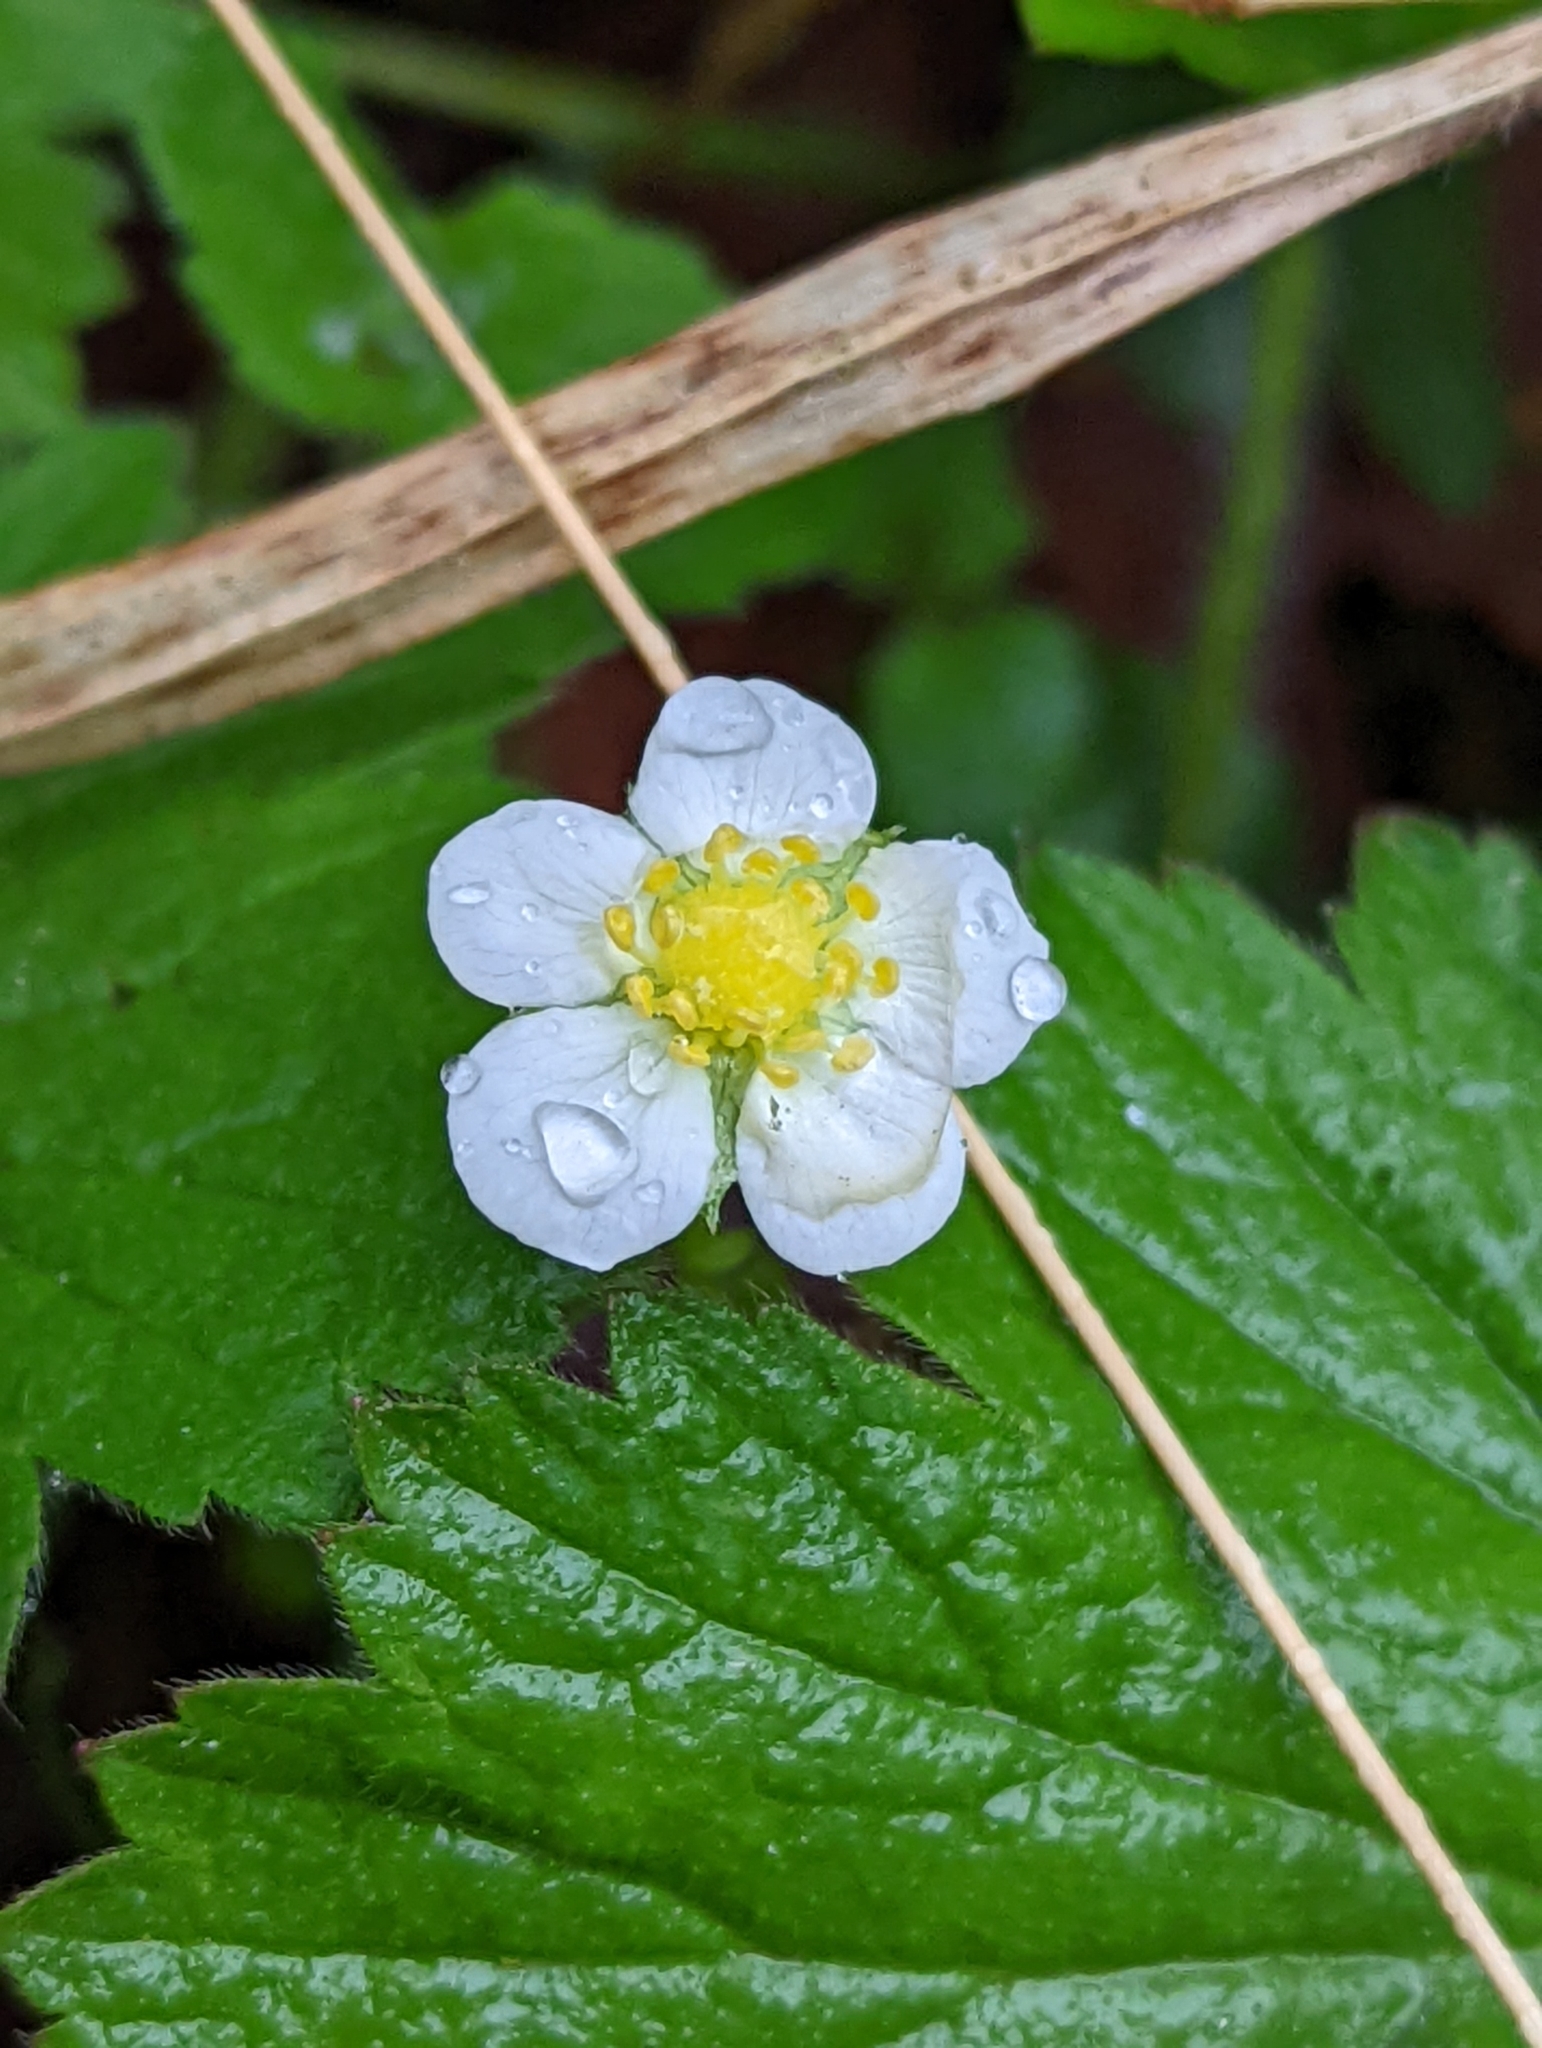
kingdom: Plantae
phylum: Tracheophyta
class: Magnoliopsida
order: Rosales
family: Rosaceae
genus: Fragaria
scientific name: Fragaria vesca
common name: Wild strawberry
